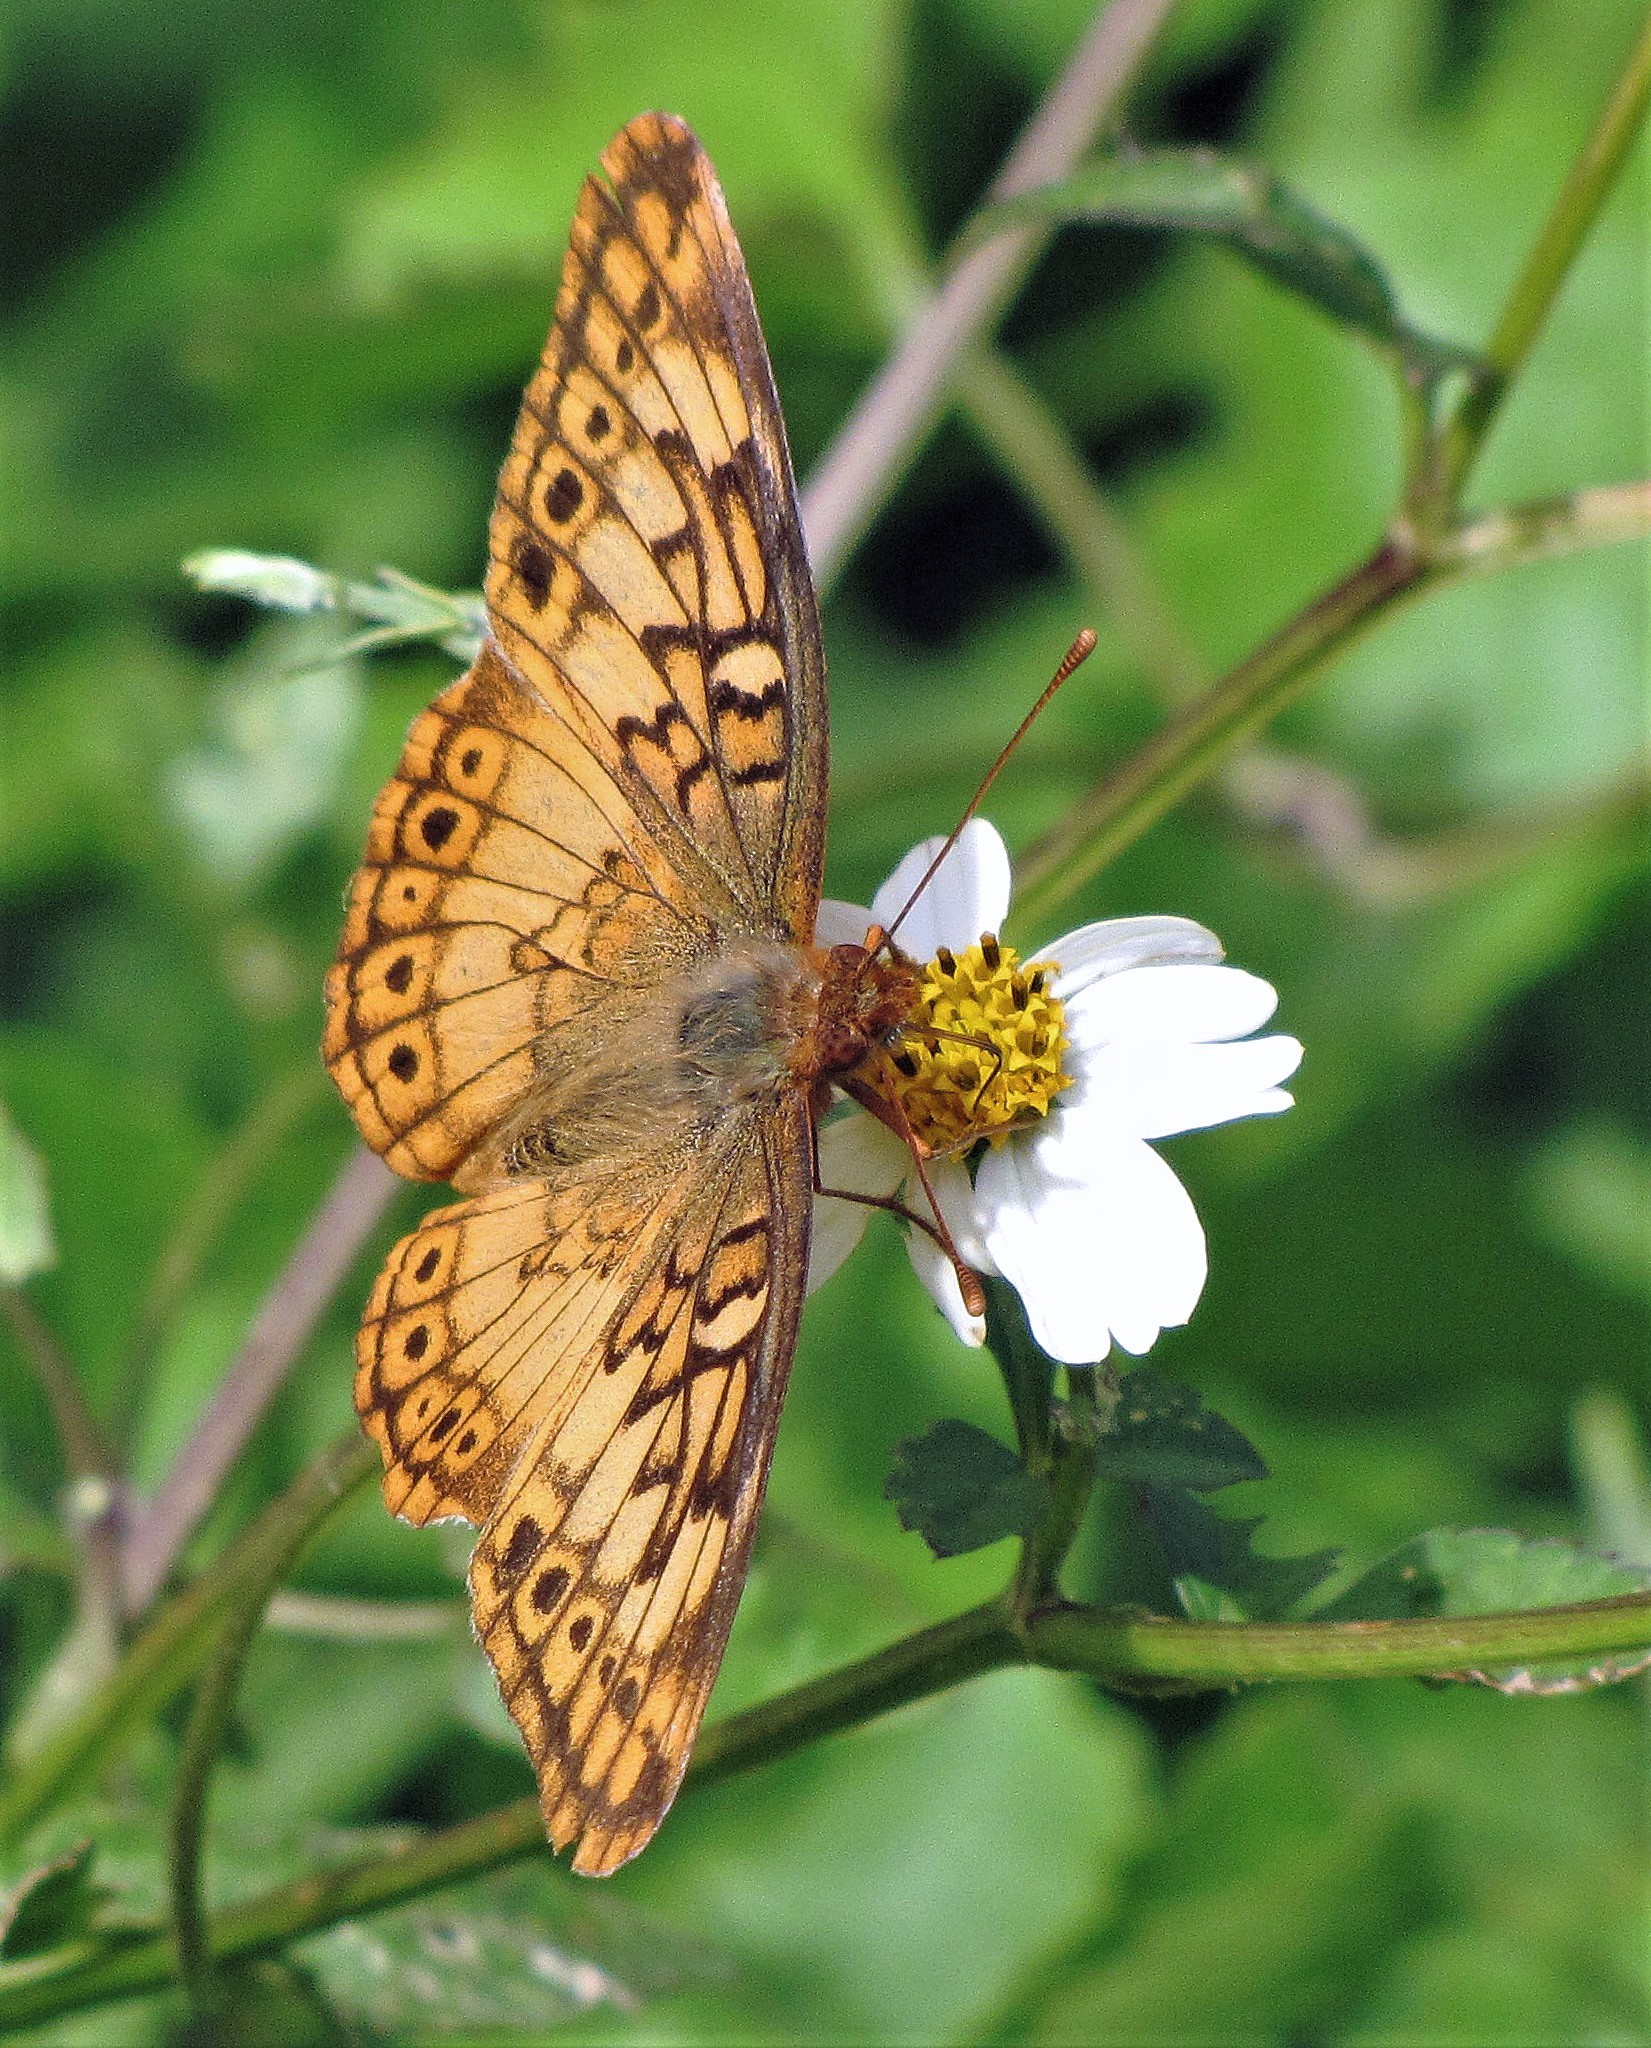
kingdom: Animalia
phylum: Arthropoda
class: Insecta
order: Lepidoptera
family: Nymphalidae
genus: Euptoieta
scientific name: Euptoieta hortensia
